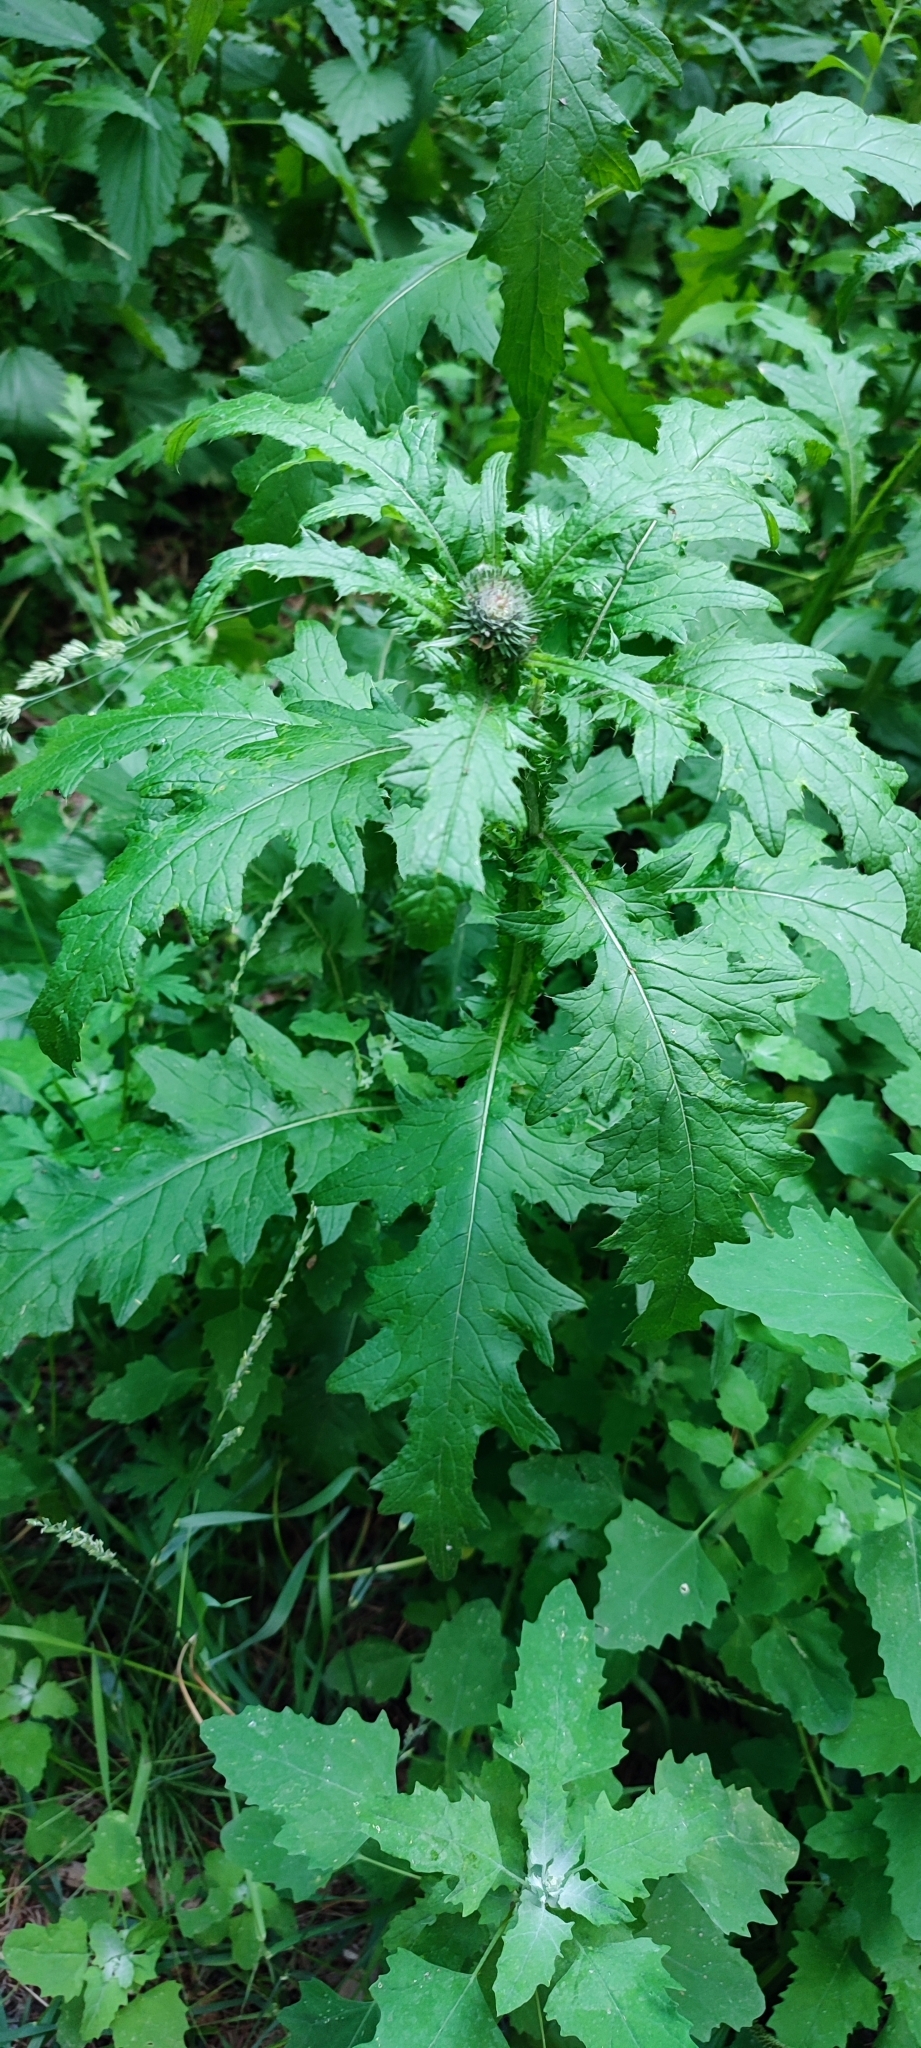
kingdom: Plantae
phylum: Tracheophyta
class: Magnoliopsida
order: Asterales
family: Asteraceae
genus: Carduus
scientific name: Carduus crispus
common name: Welted thistle
